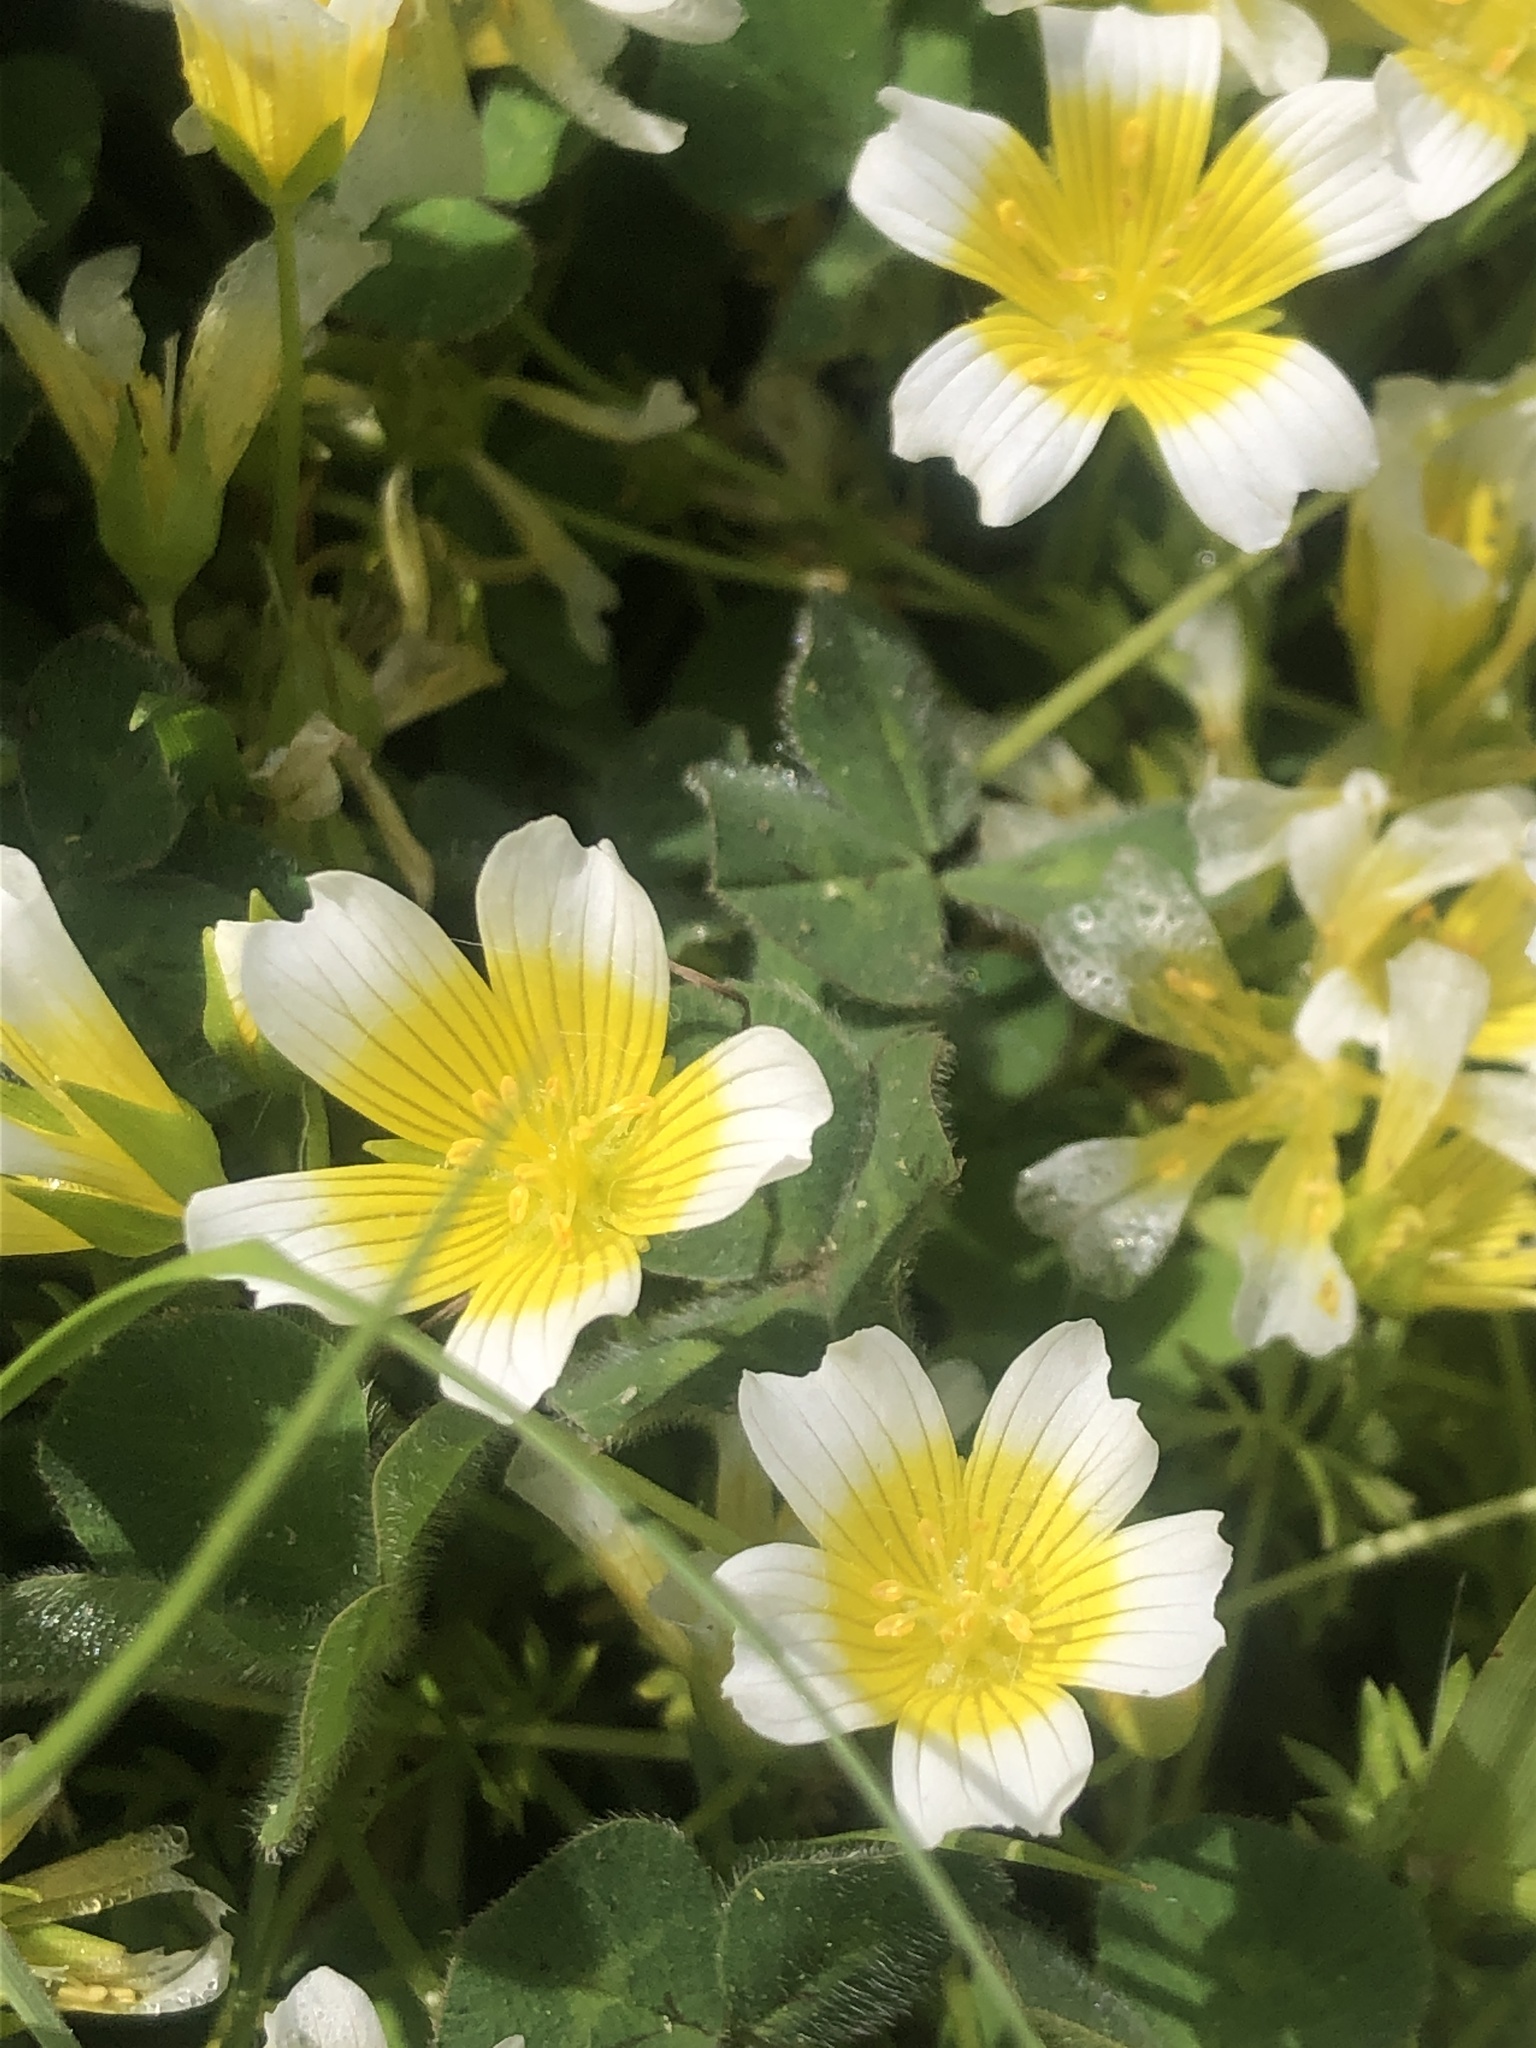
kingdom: Plantae
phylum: Tracheophyta
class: Magnoliopsida
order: Brassicales
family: Limnanthaceae
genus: Limnanthes
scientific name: Limnanthes douglasii
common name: Meadow-foam
